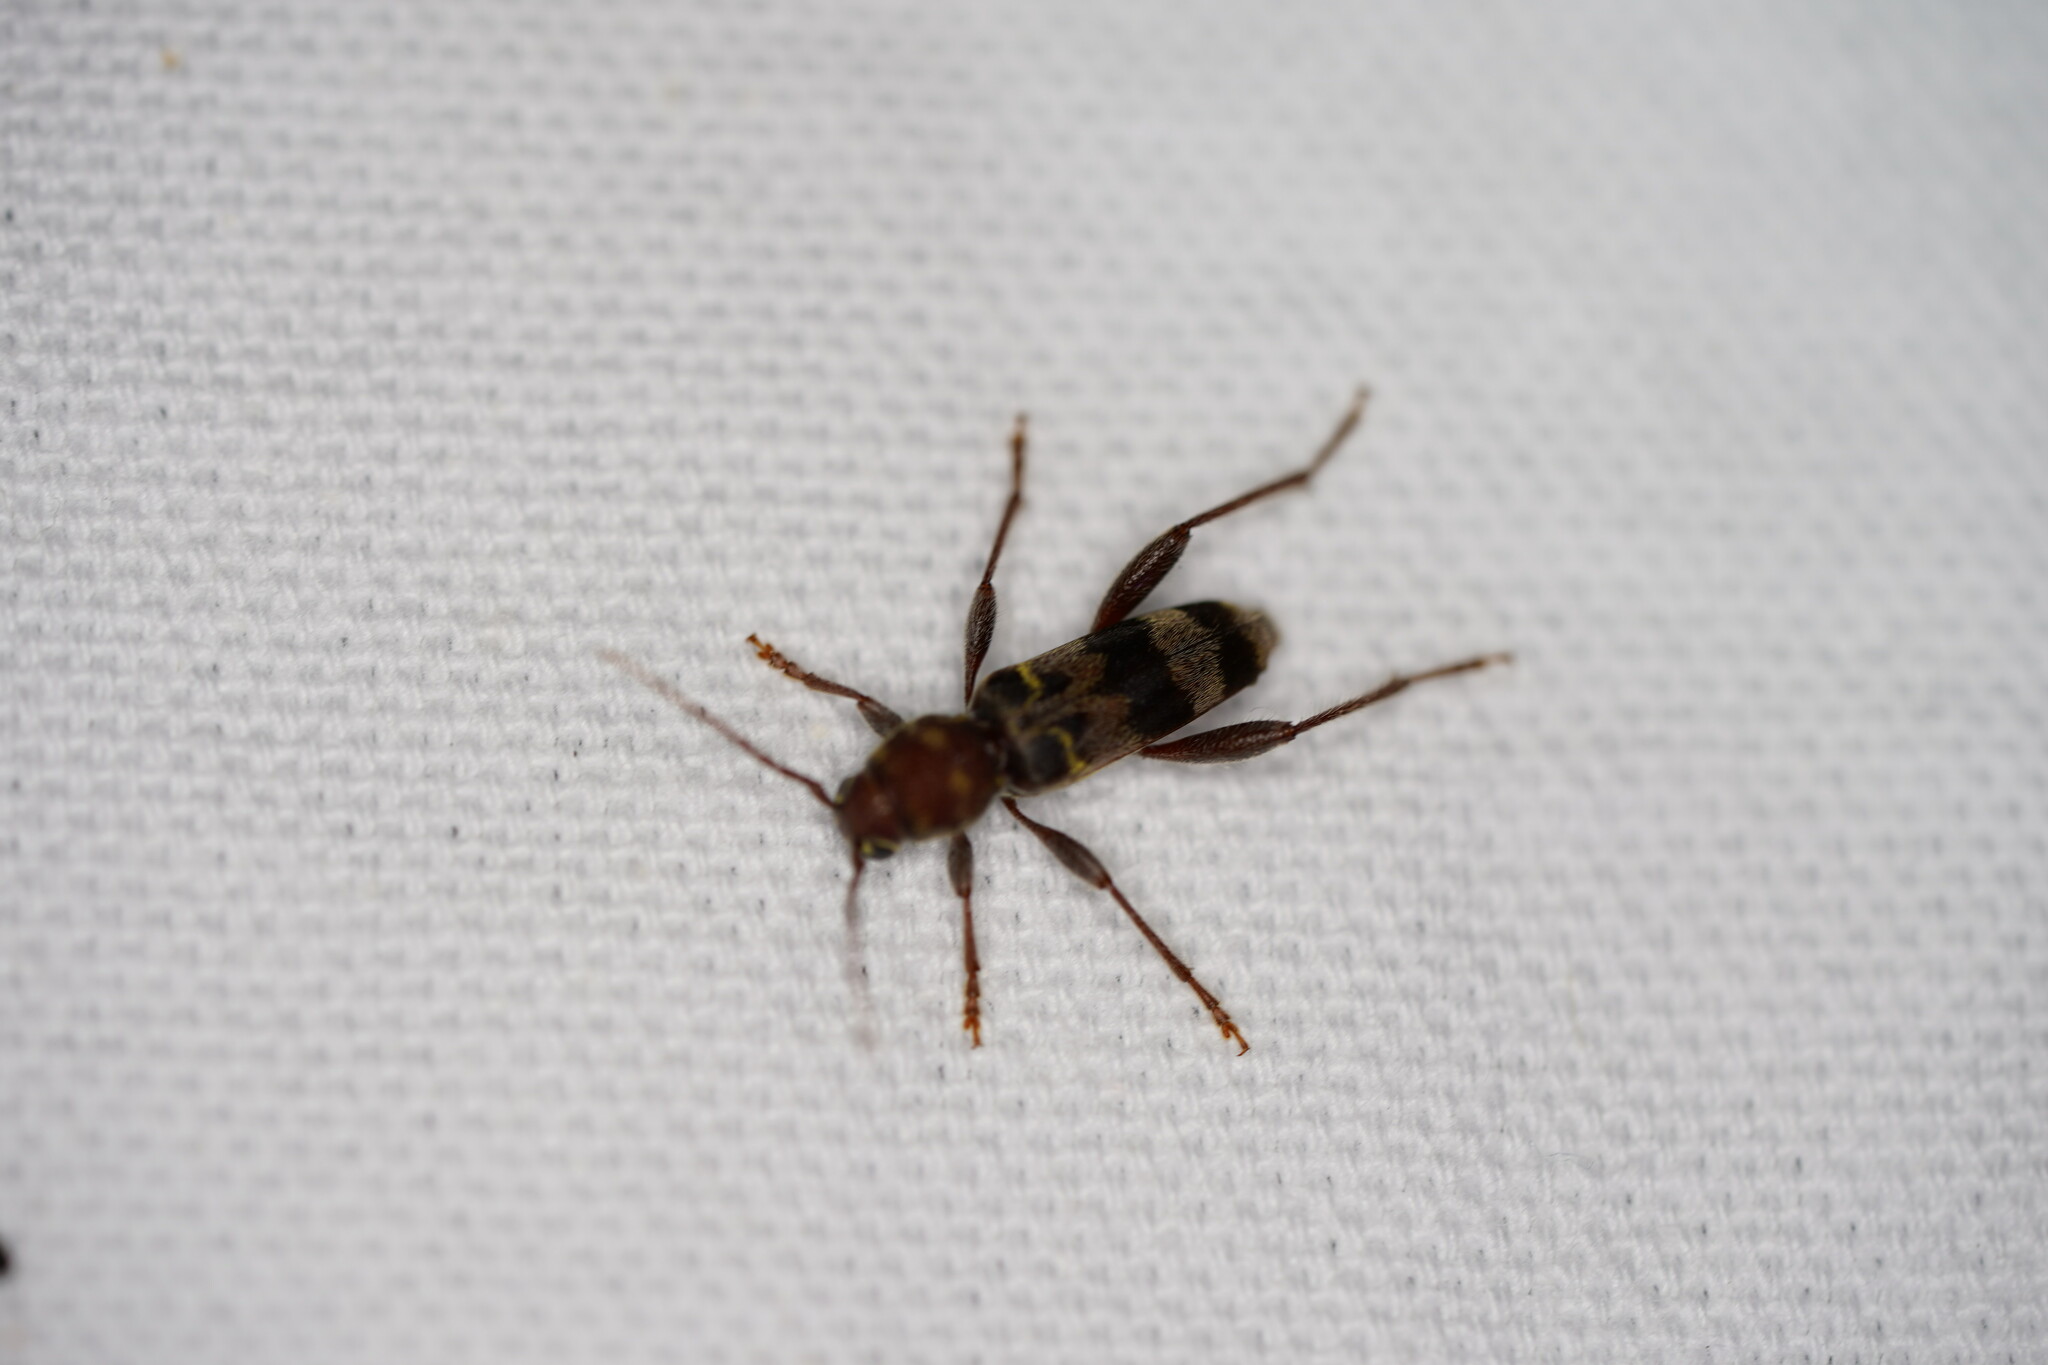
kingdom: Animalia
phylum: Arthropoda
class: Insecta
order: Coleoptera
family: Cerambycidae
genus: Xylotrechus
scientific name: Xylotrechus colonus
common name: Long-horned beetle
